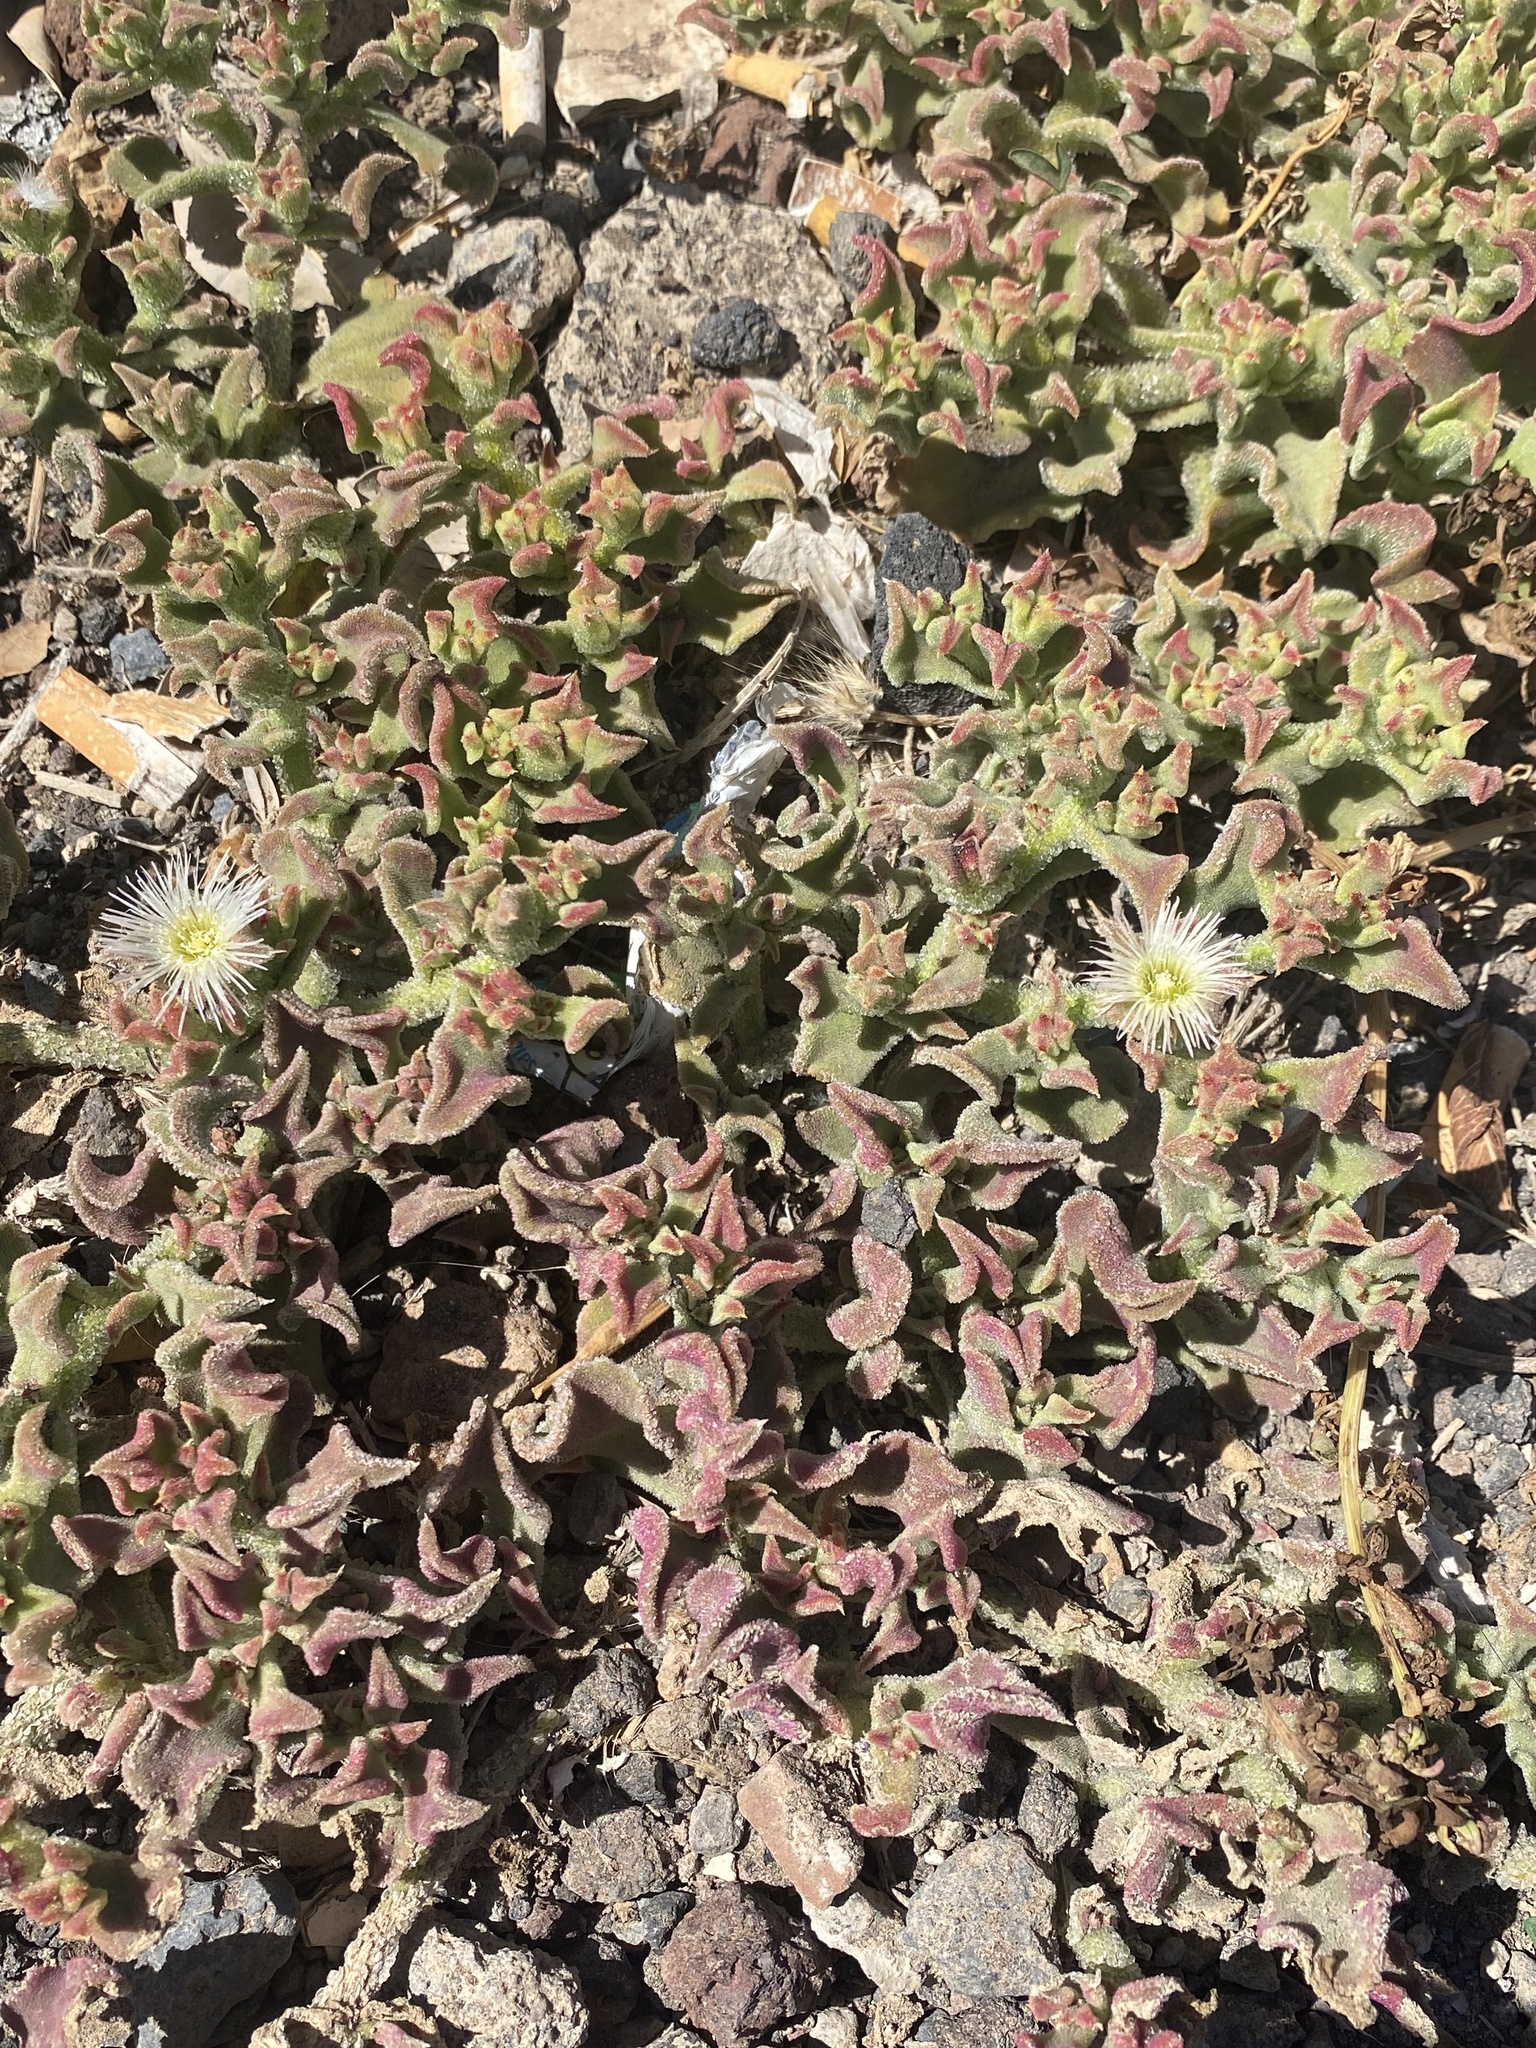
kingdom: Plantae
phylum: Tracheophyta
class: Magnoliopsida
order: Caryophyllales
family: Aizoaceae
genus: Mesembryanthemum
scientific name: Mesembryanthemum crystallinum
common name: Common iceplant
